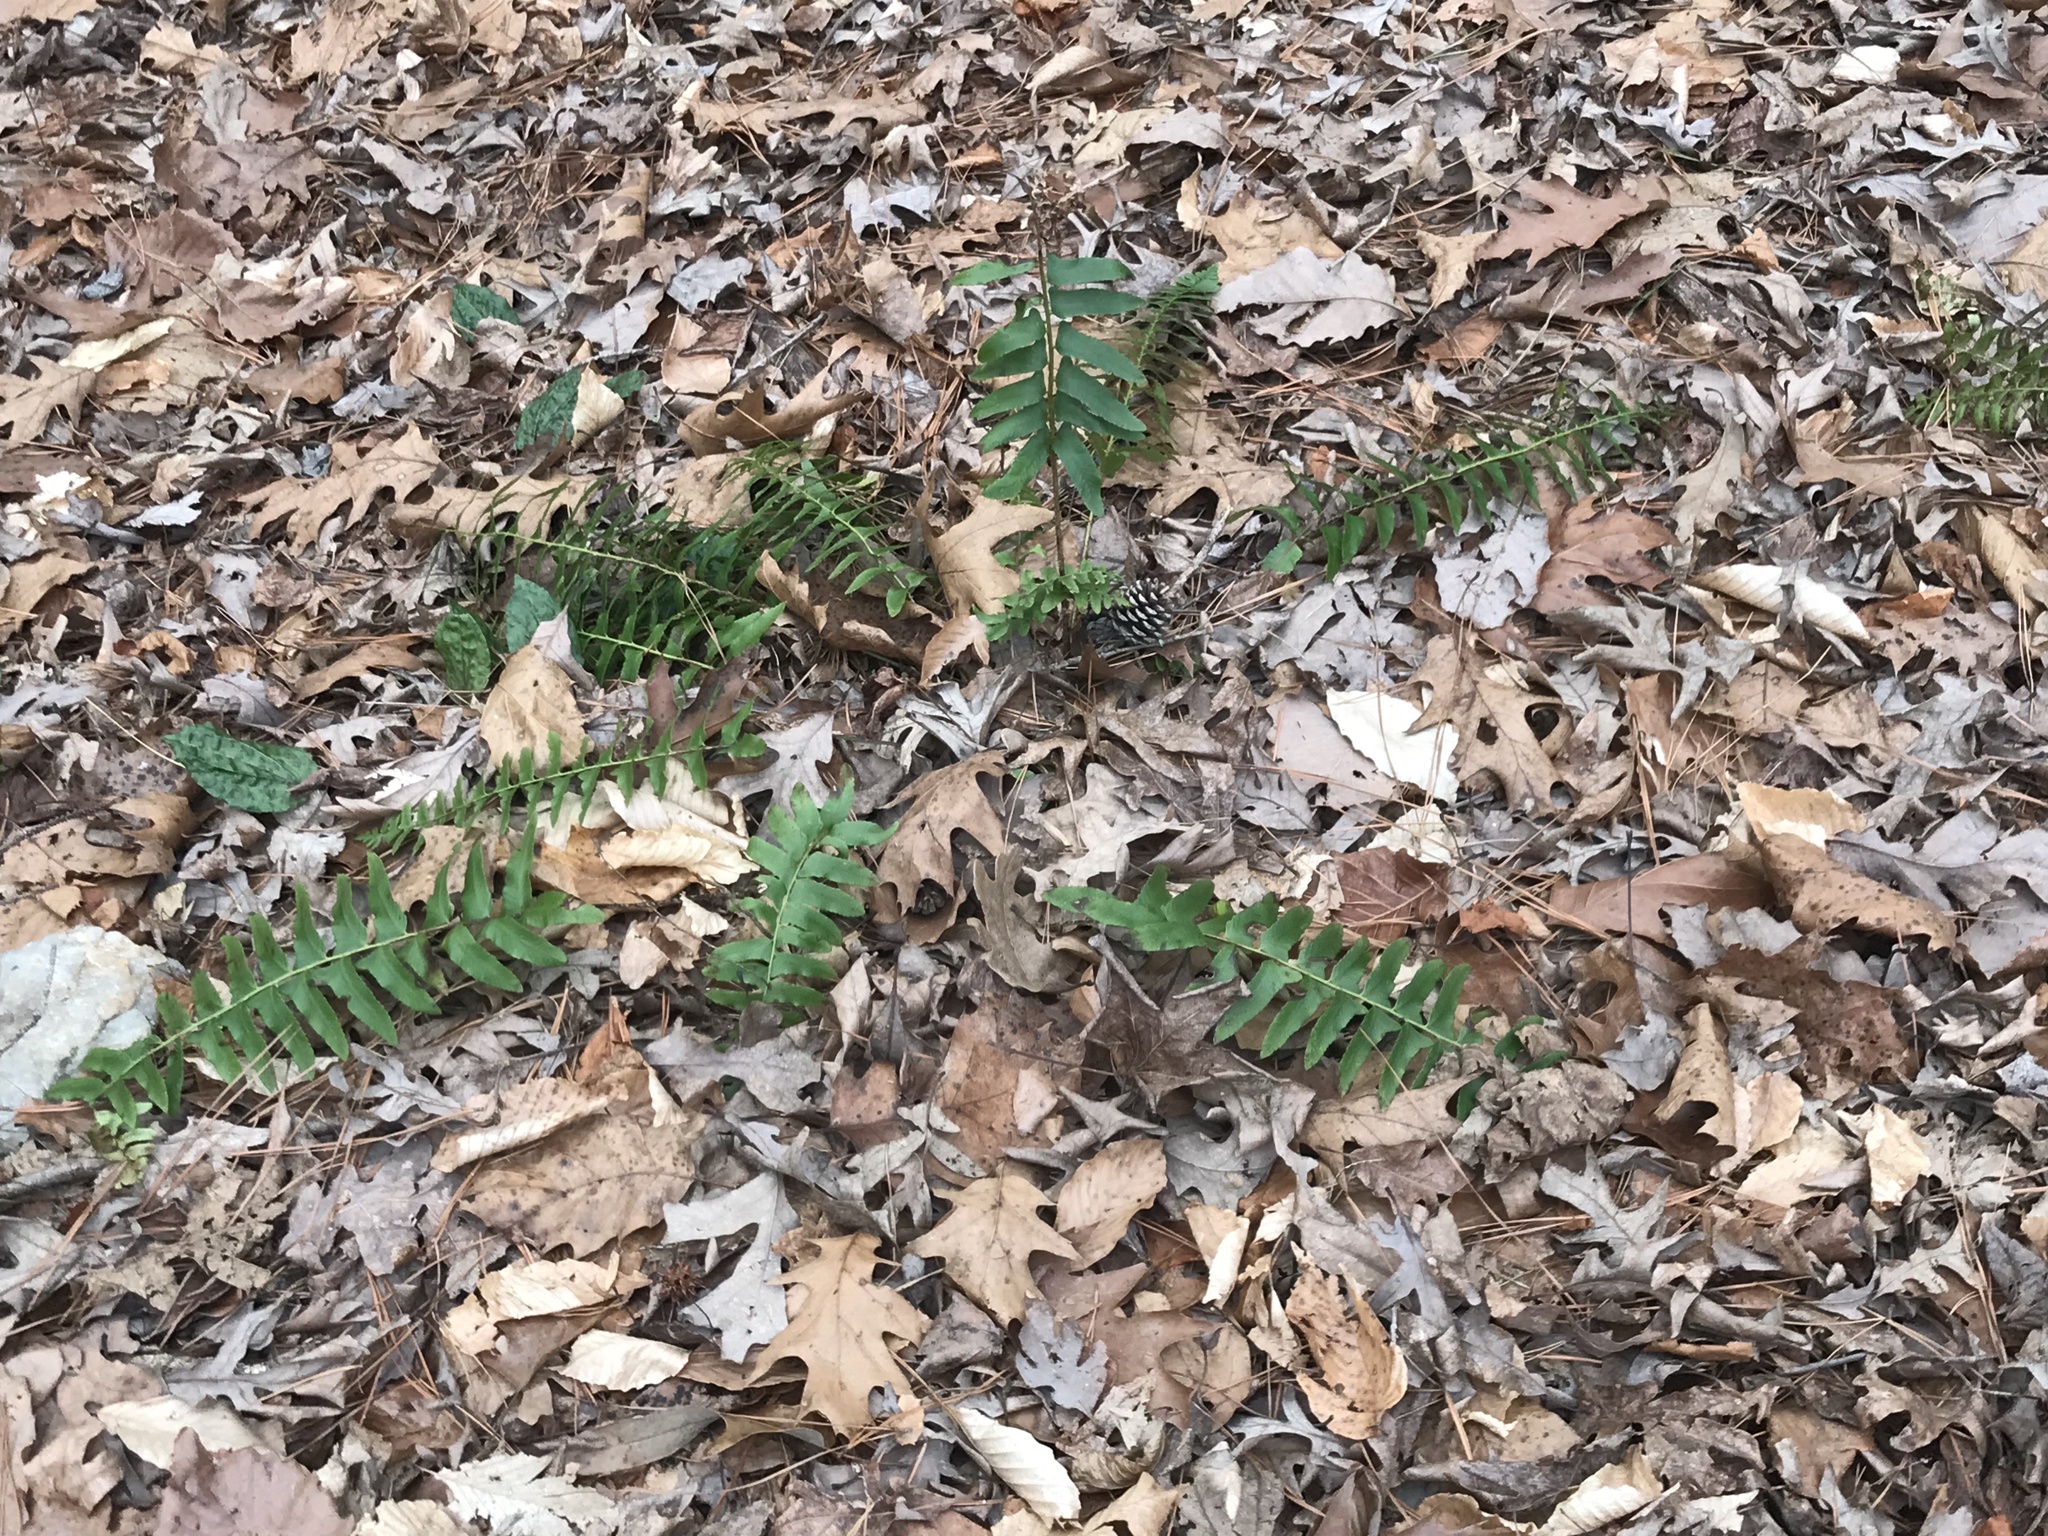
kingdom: Plantae
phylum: Tracheophyta
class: Polypodiopsida
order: Polypodiales
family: Dryopteridaceae
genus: Polystichum
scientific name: Polystichum acrostichoides
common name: Christmas fern
